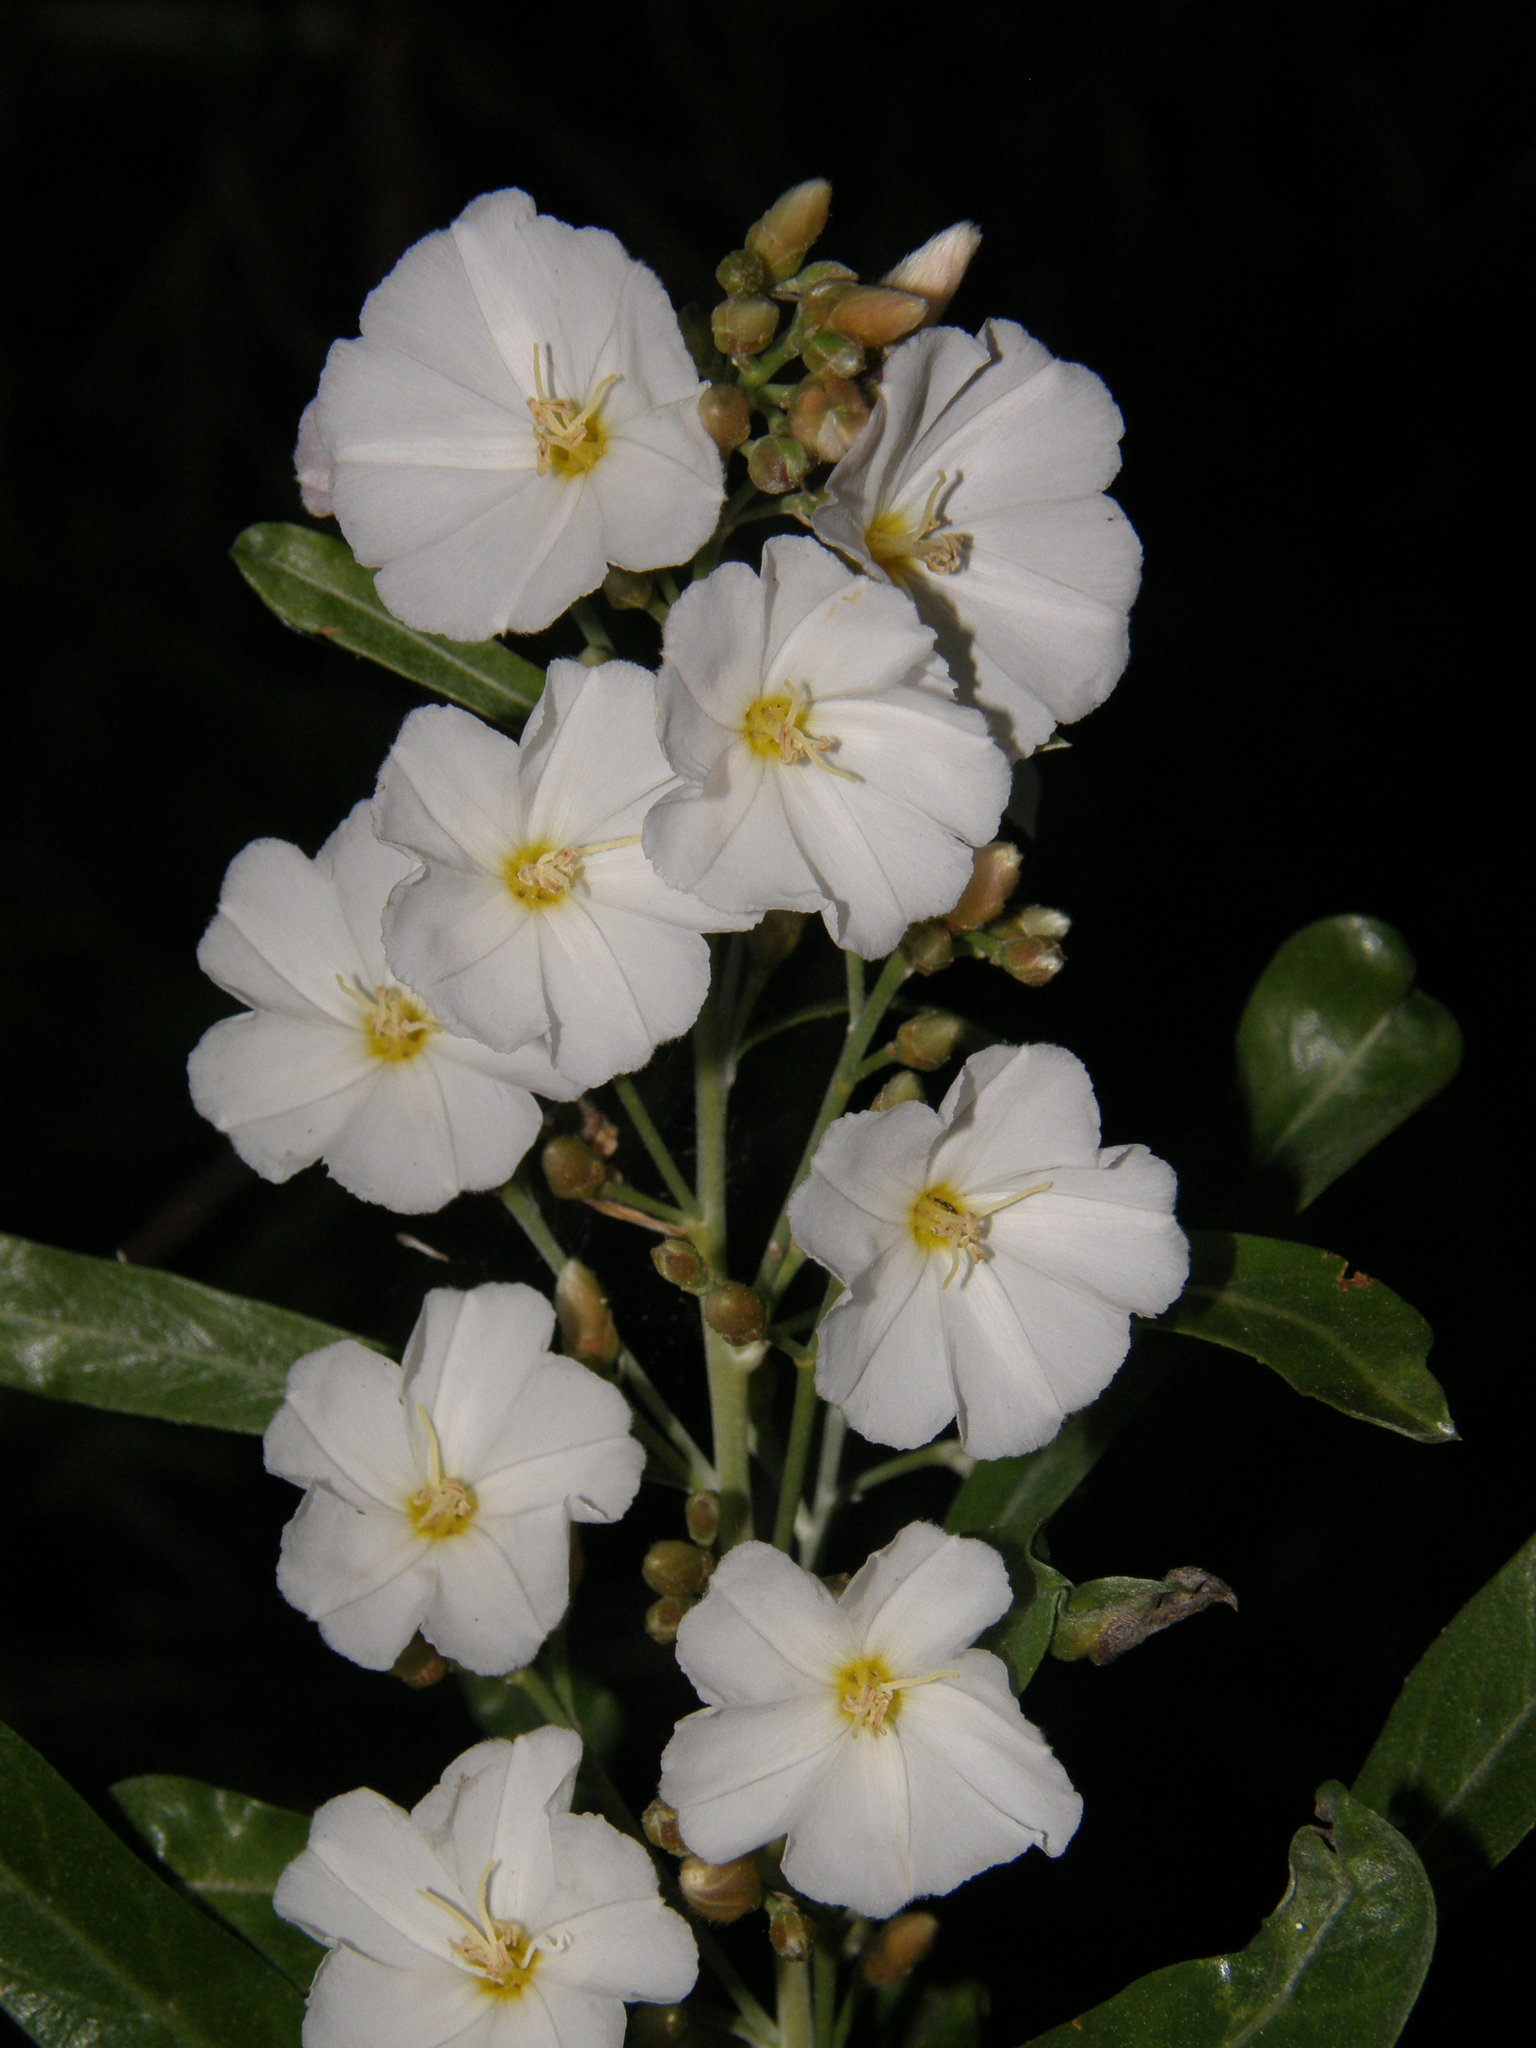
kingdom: Plantae
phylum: Tracheophyta
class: Magnoliopsida
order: Solanales
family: Convolvulaceae
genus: Convolvulus
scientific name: Convolvulus floridus
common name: Guadil
